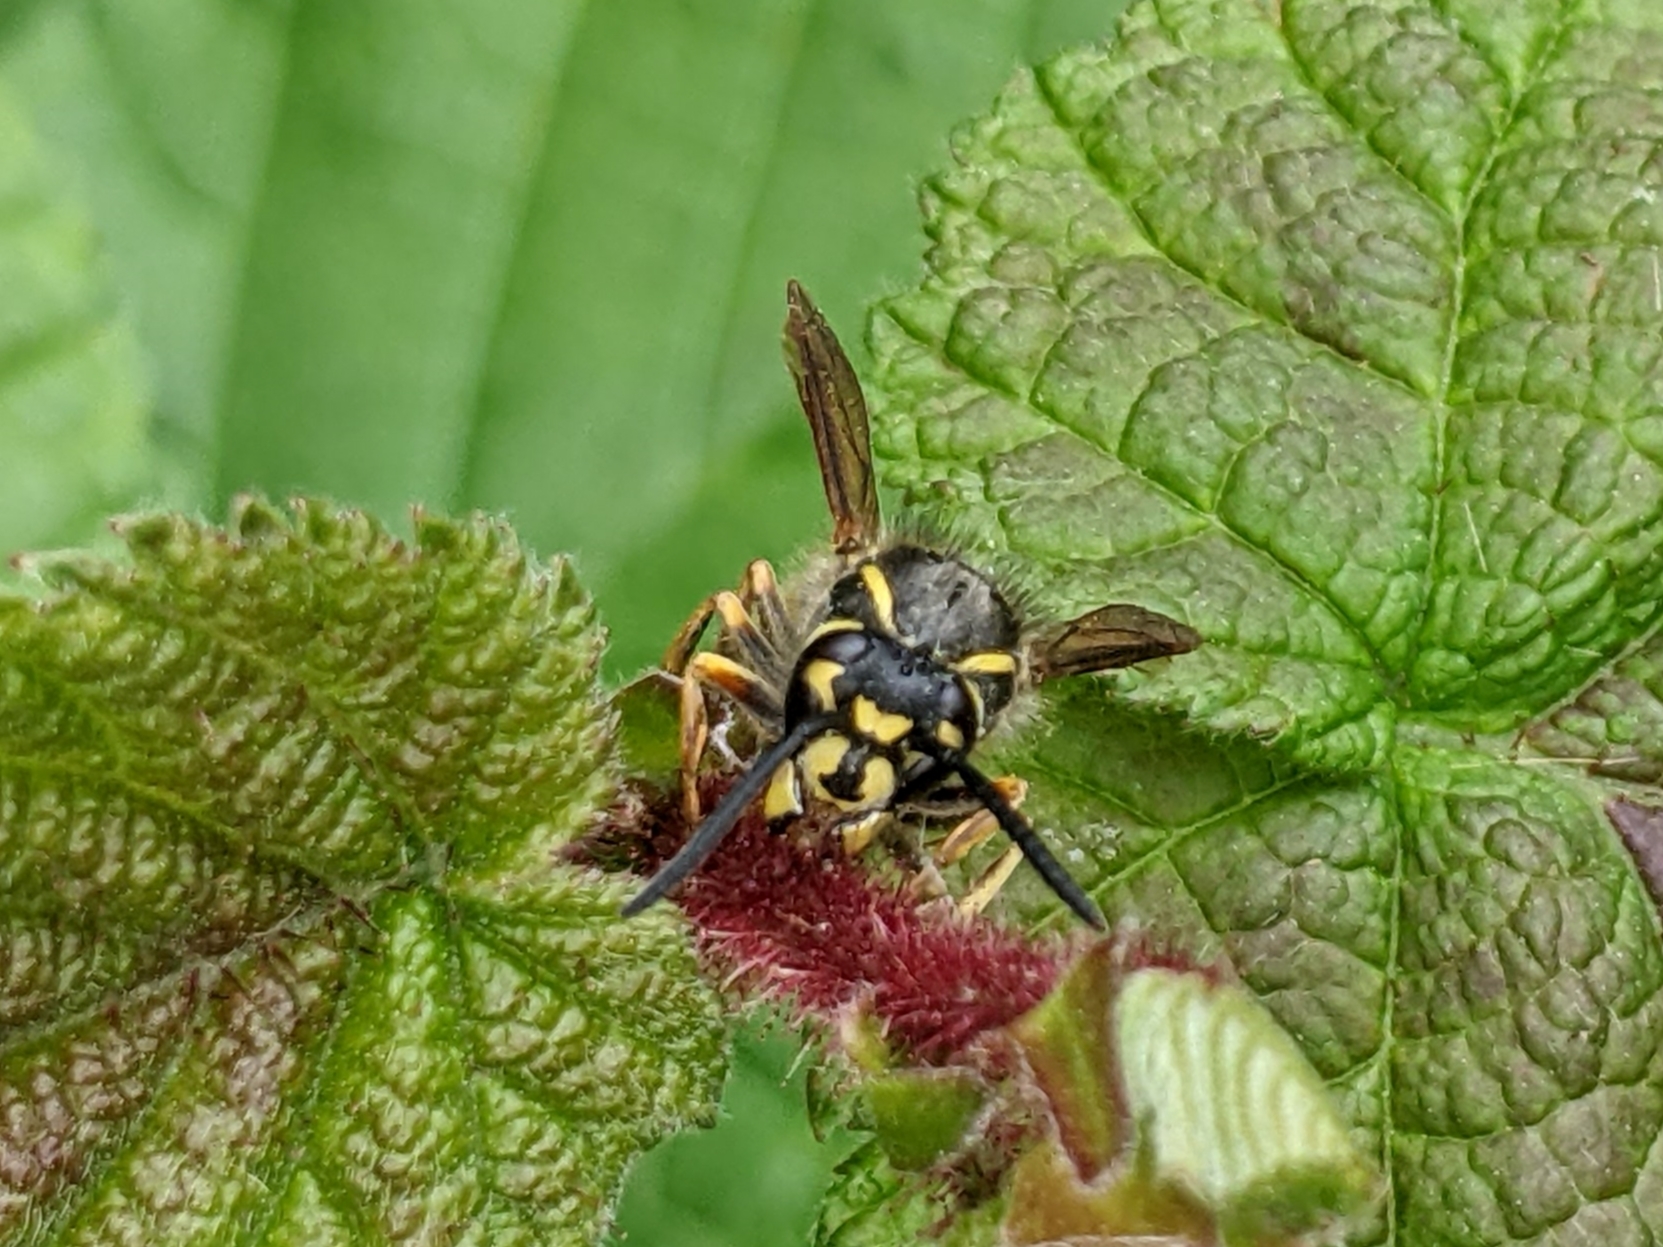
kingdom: Animalia
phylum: Arthropoda
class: Insecta
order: Hymenoptera
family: Vespidae
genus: Vespula
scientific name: Vespula vulgaris
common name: Common wasp
